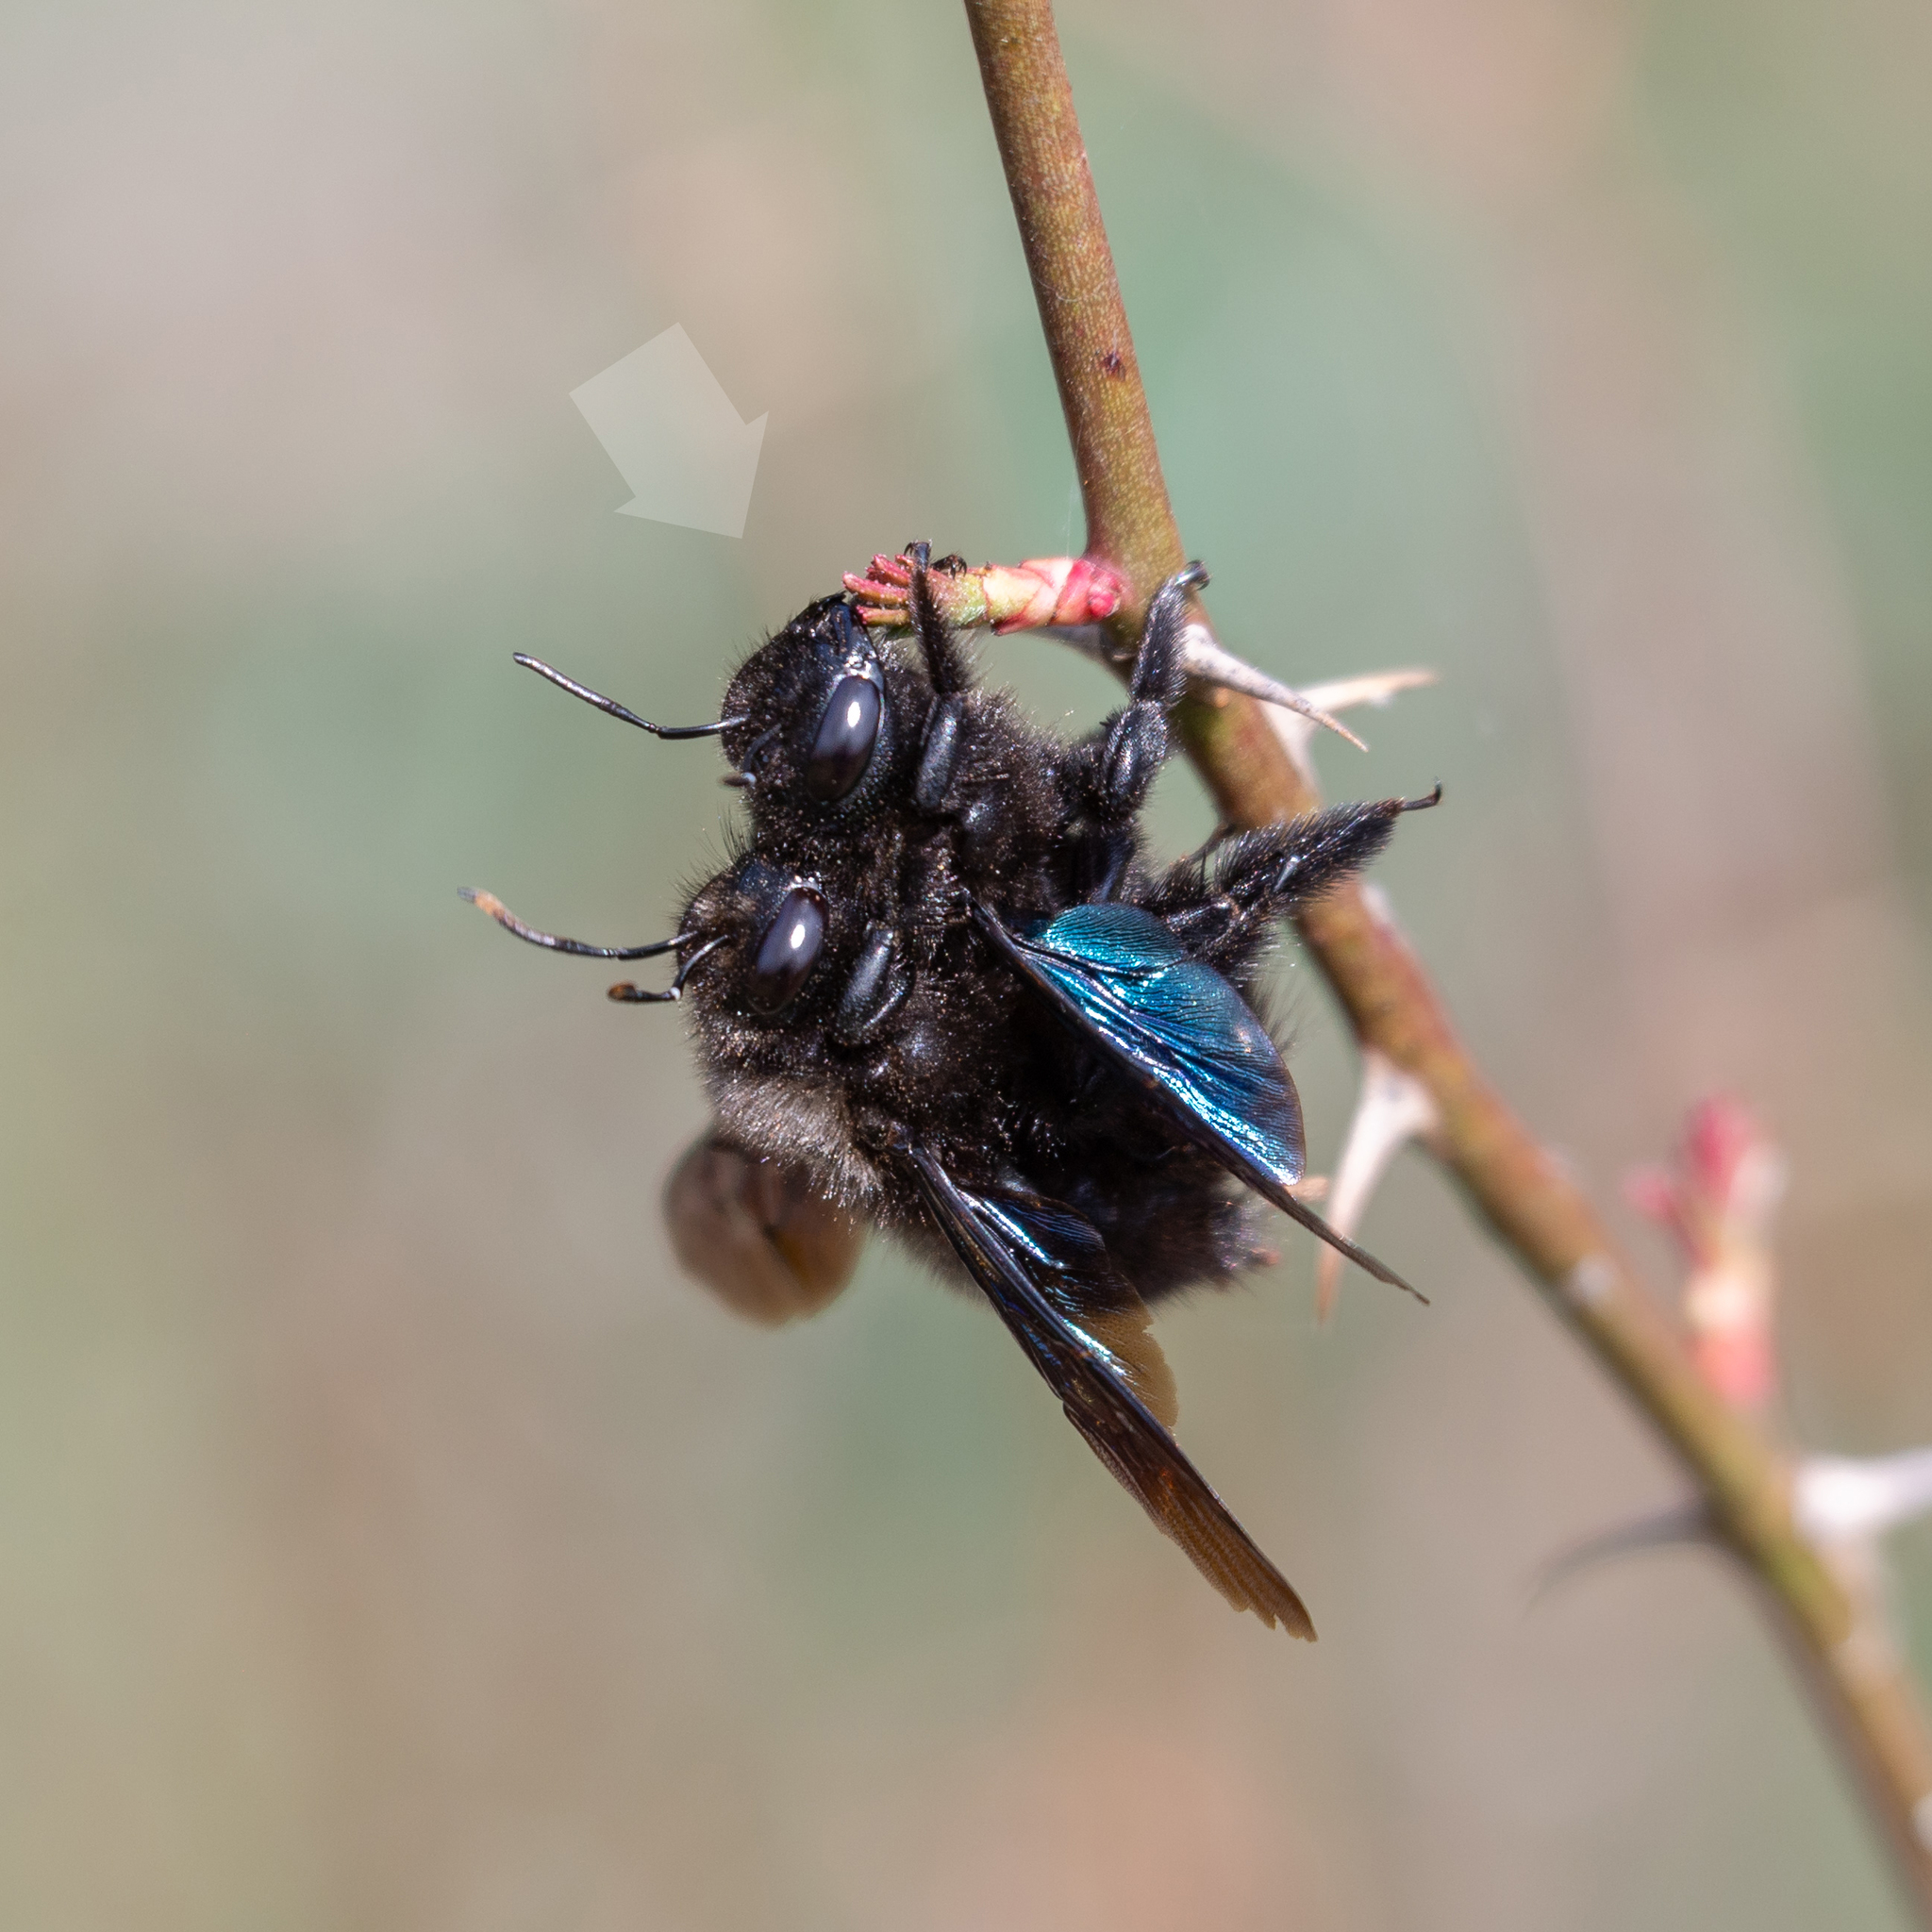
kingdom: Animalia
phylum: Arthropoda
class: Insecta
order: Hymenoptera
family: Apidae
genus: Xylocopa
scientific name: Xylocopa violacea
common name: Violet carpenter bee
